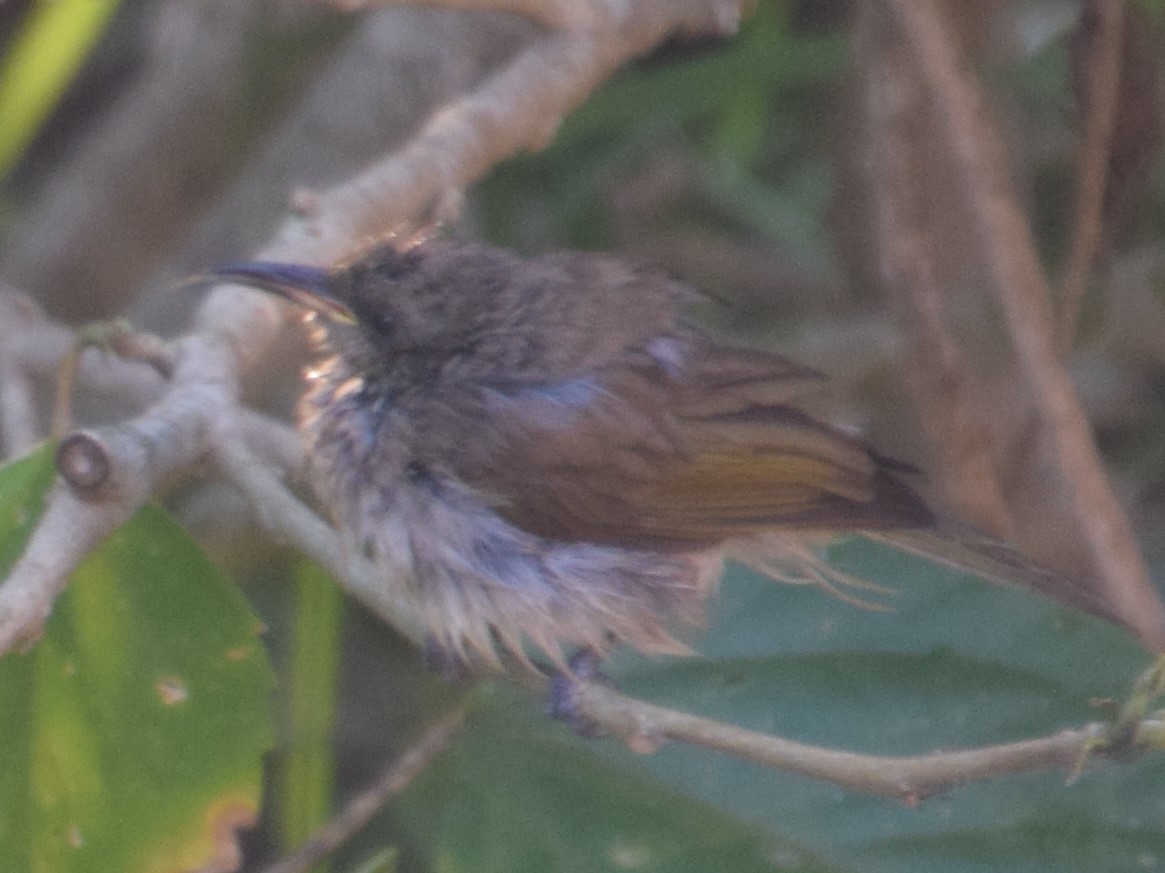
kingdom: Animalia
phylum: Chordata
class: Aves
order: Passeriformes
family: Meliphagidae
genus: Lichmera
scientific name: Lichmera indistincta
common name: Brown honeyeater
